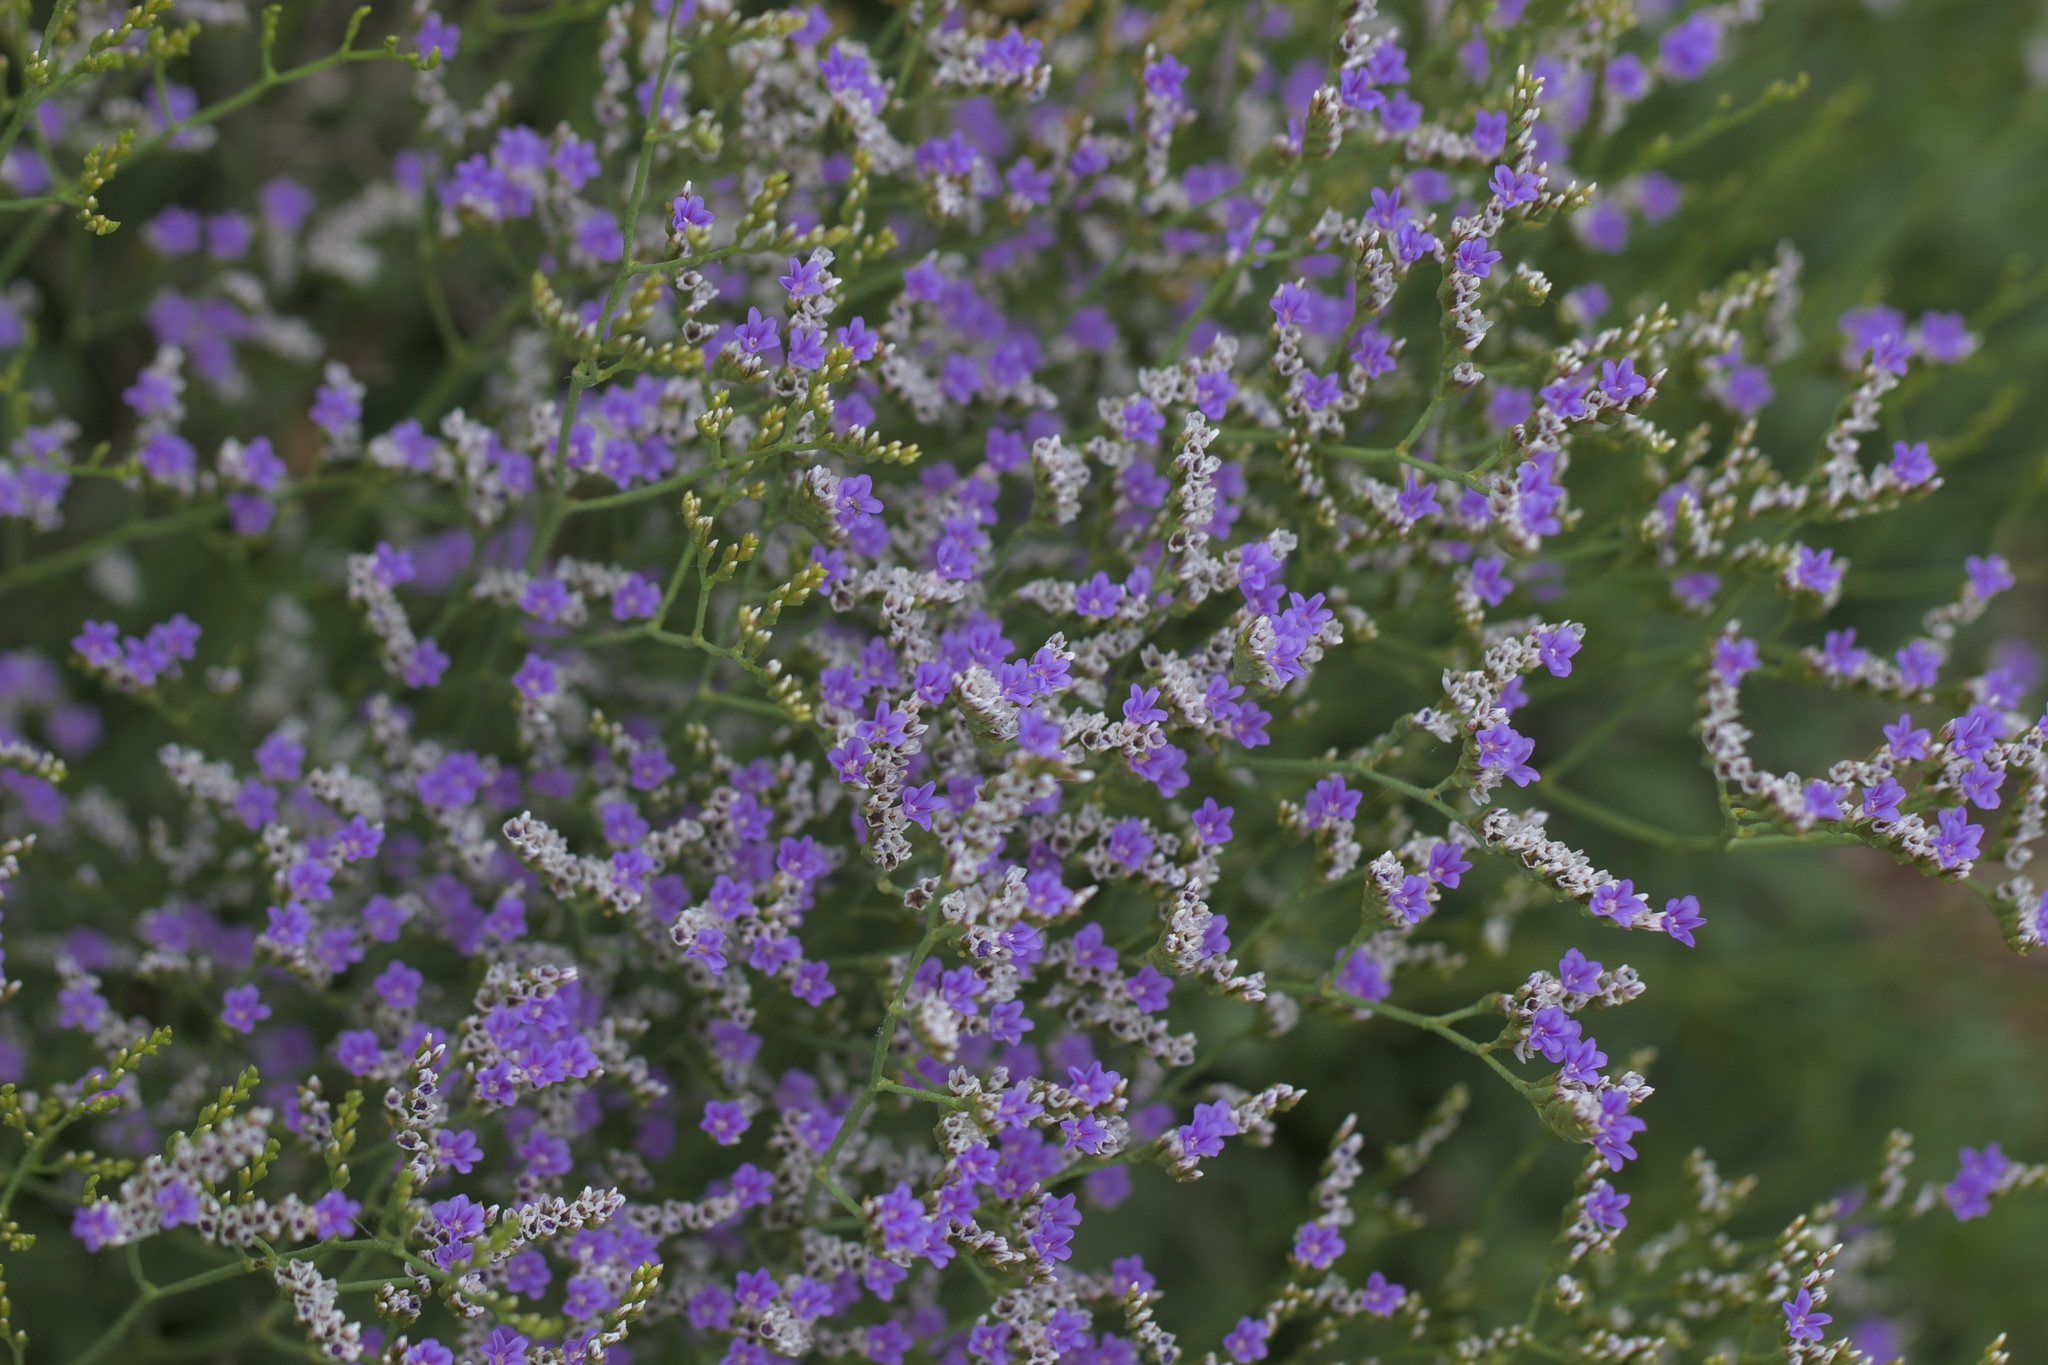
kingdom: Plantae
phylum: Tracheophyta
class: Magnoliopsida
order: Caryophyllales
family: Plumbaginaceae
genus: Limonium
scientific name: Limonium ramosissimum
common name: Algerian sea lavender
